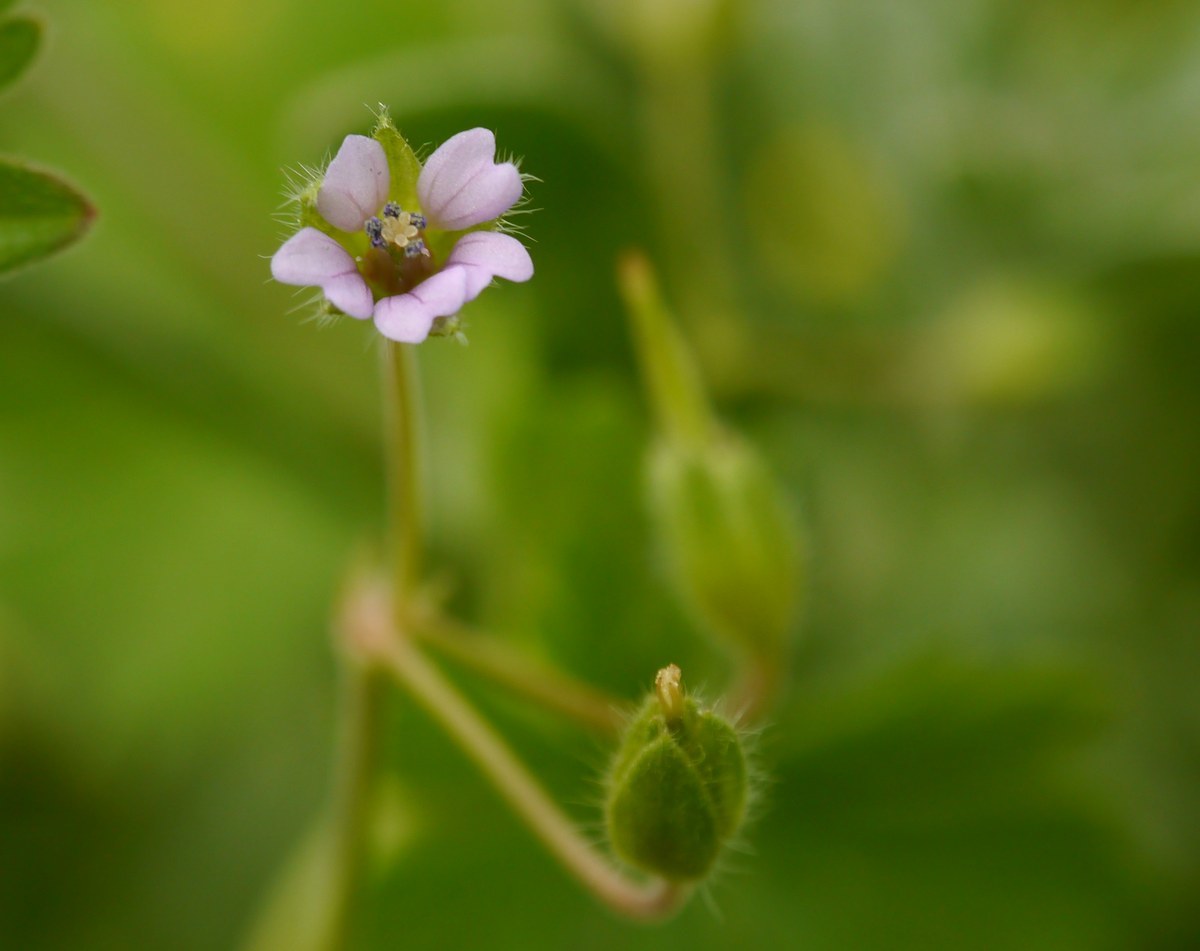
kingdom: Plantae
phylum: Tracheophyta
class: Magnoliopsida
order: Geraniales
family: Geraniaceae
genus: Geranium
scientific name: Geranium pusillum
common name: Small geranium
